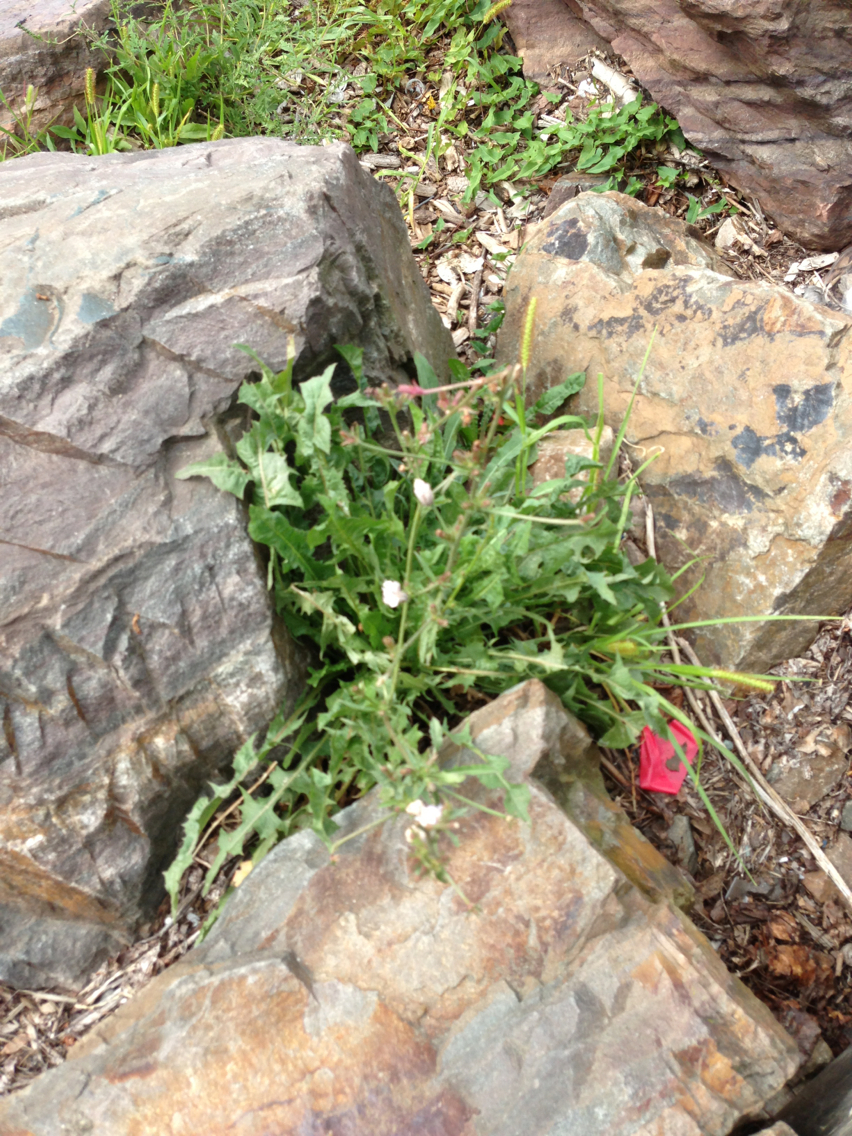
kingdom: Plantae
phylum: Tracheophyta
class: Magnoliopsida
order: Asterales
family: Asteraceae
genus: Cichorium
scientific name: Cichorium intybus
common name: Chicory
